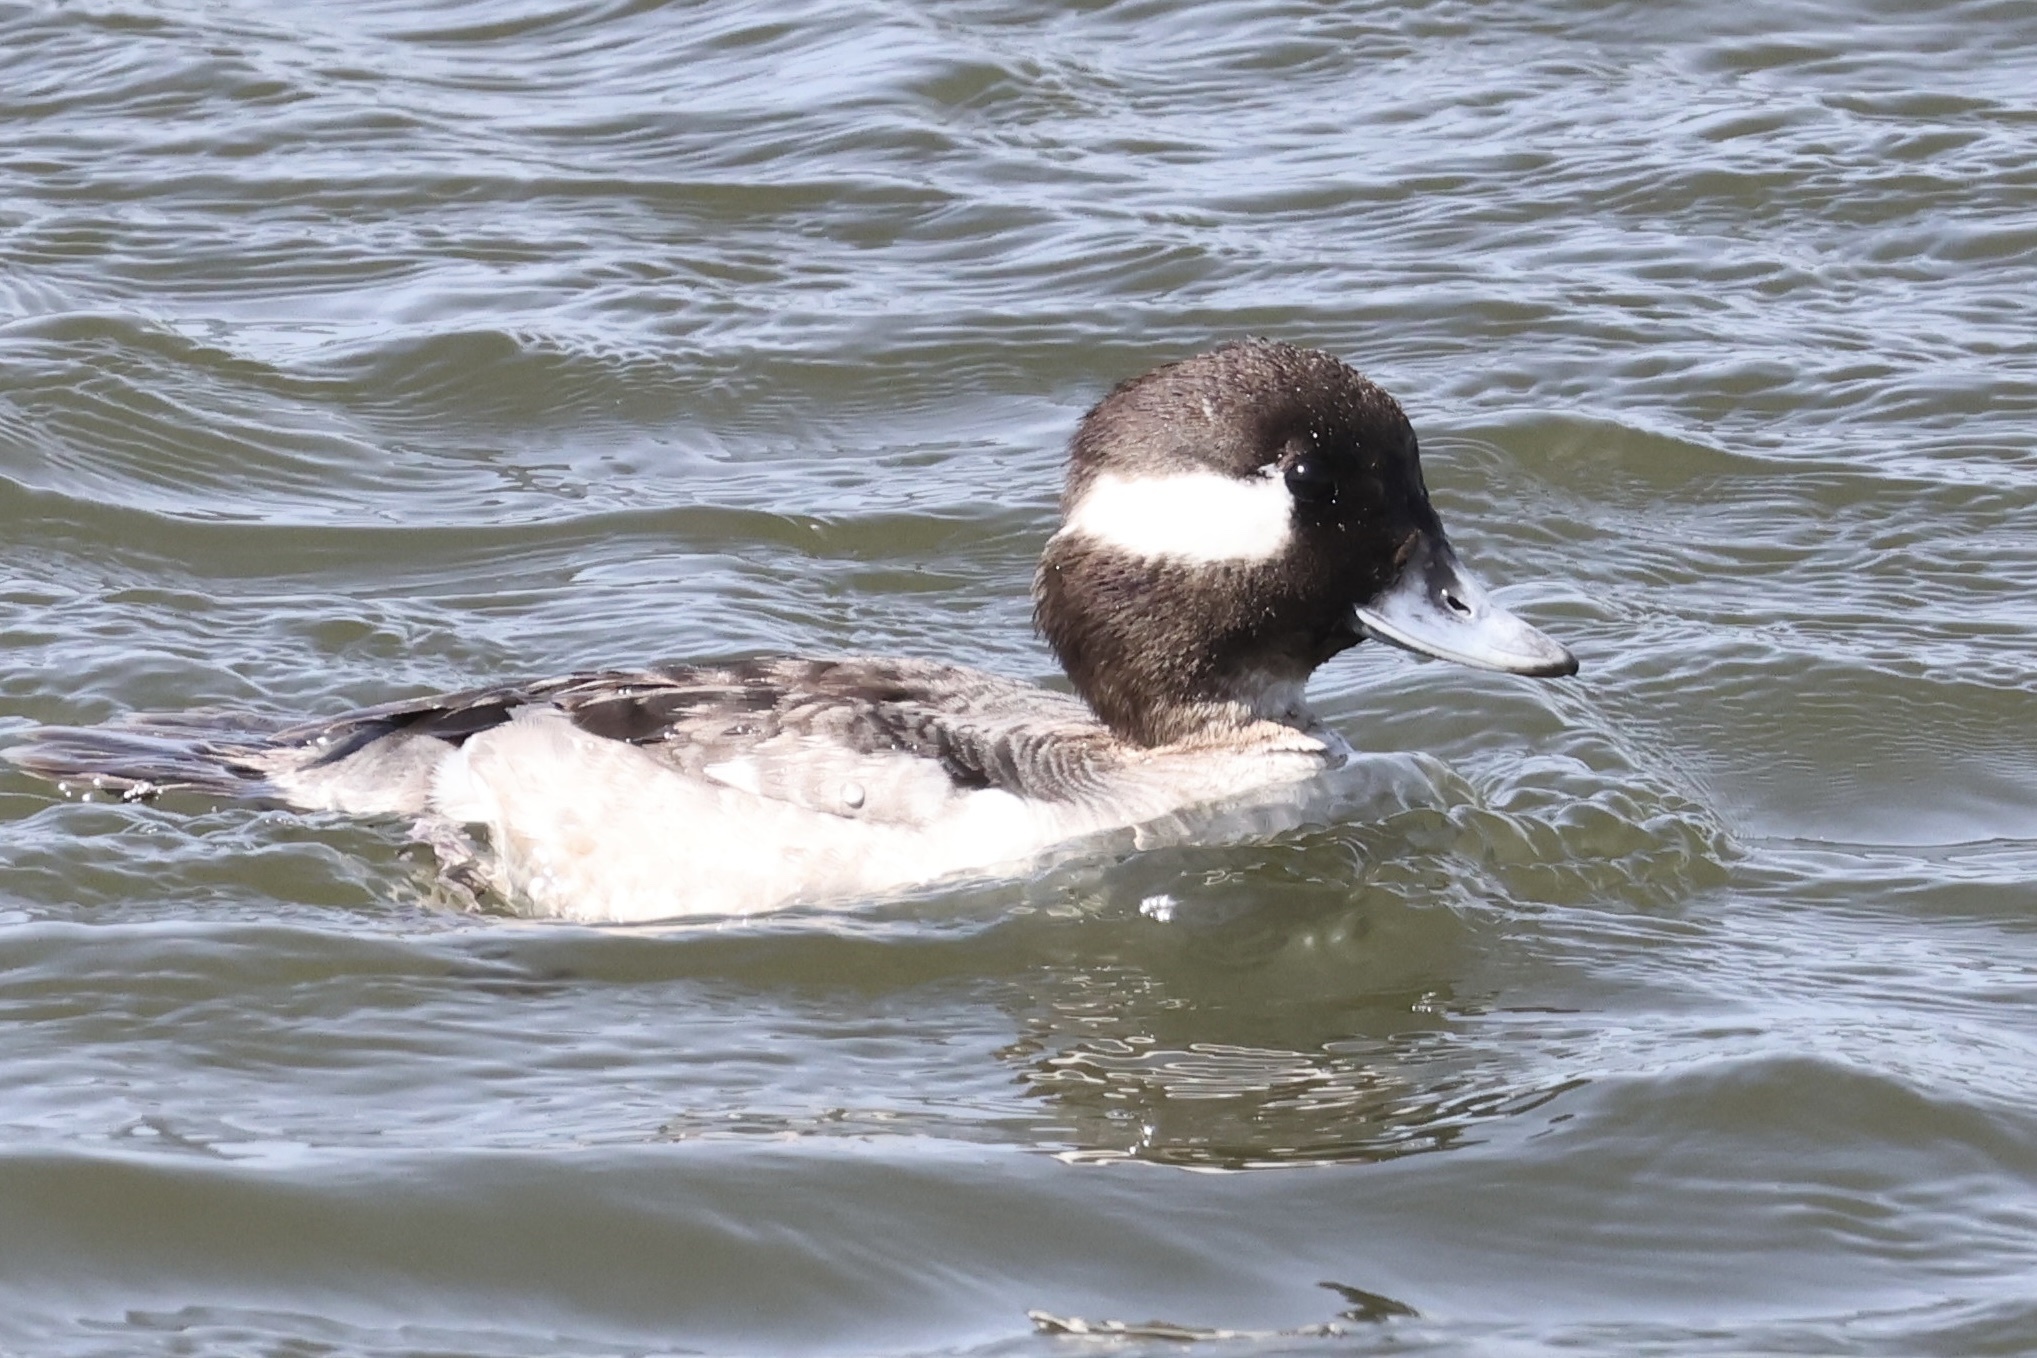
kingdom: Animalia
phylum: Chordata
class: Aves
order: Anseriformes
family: Anatidae
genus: Bucephala
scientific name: Bucephala albeola
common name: Bufflehead
